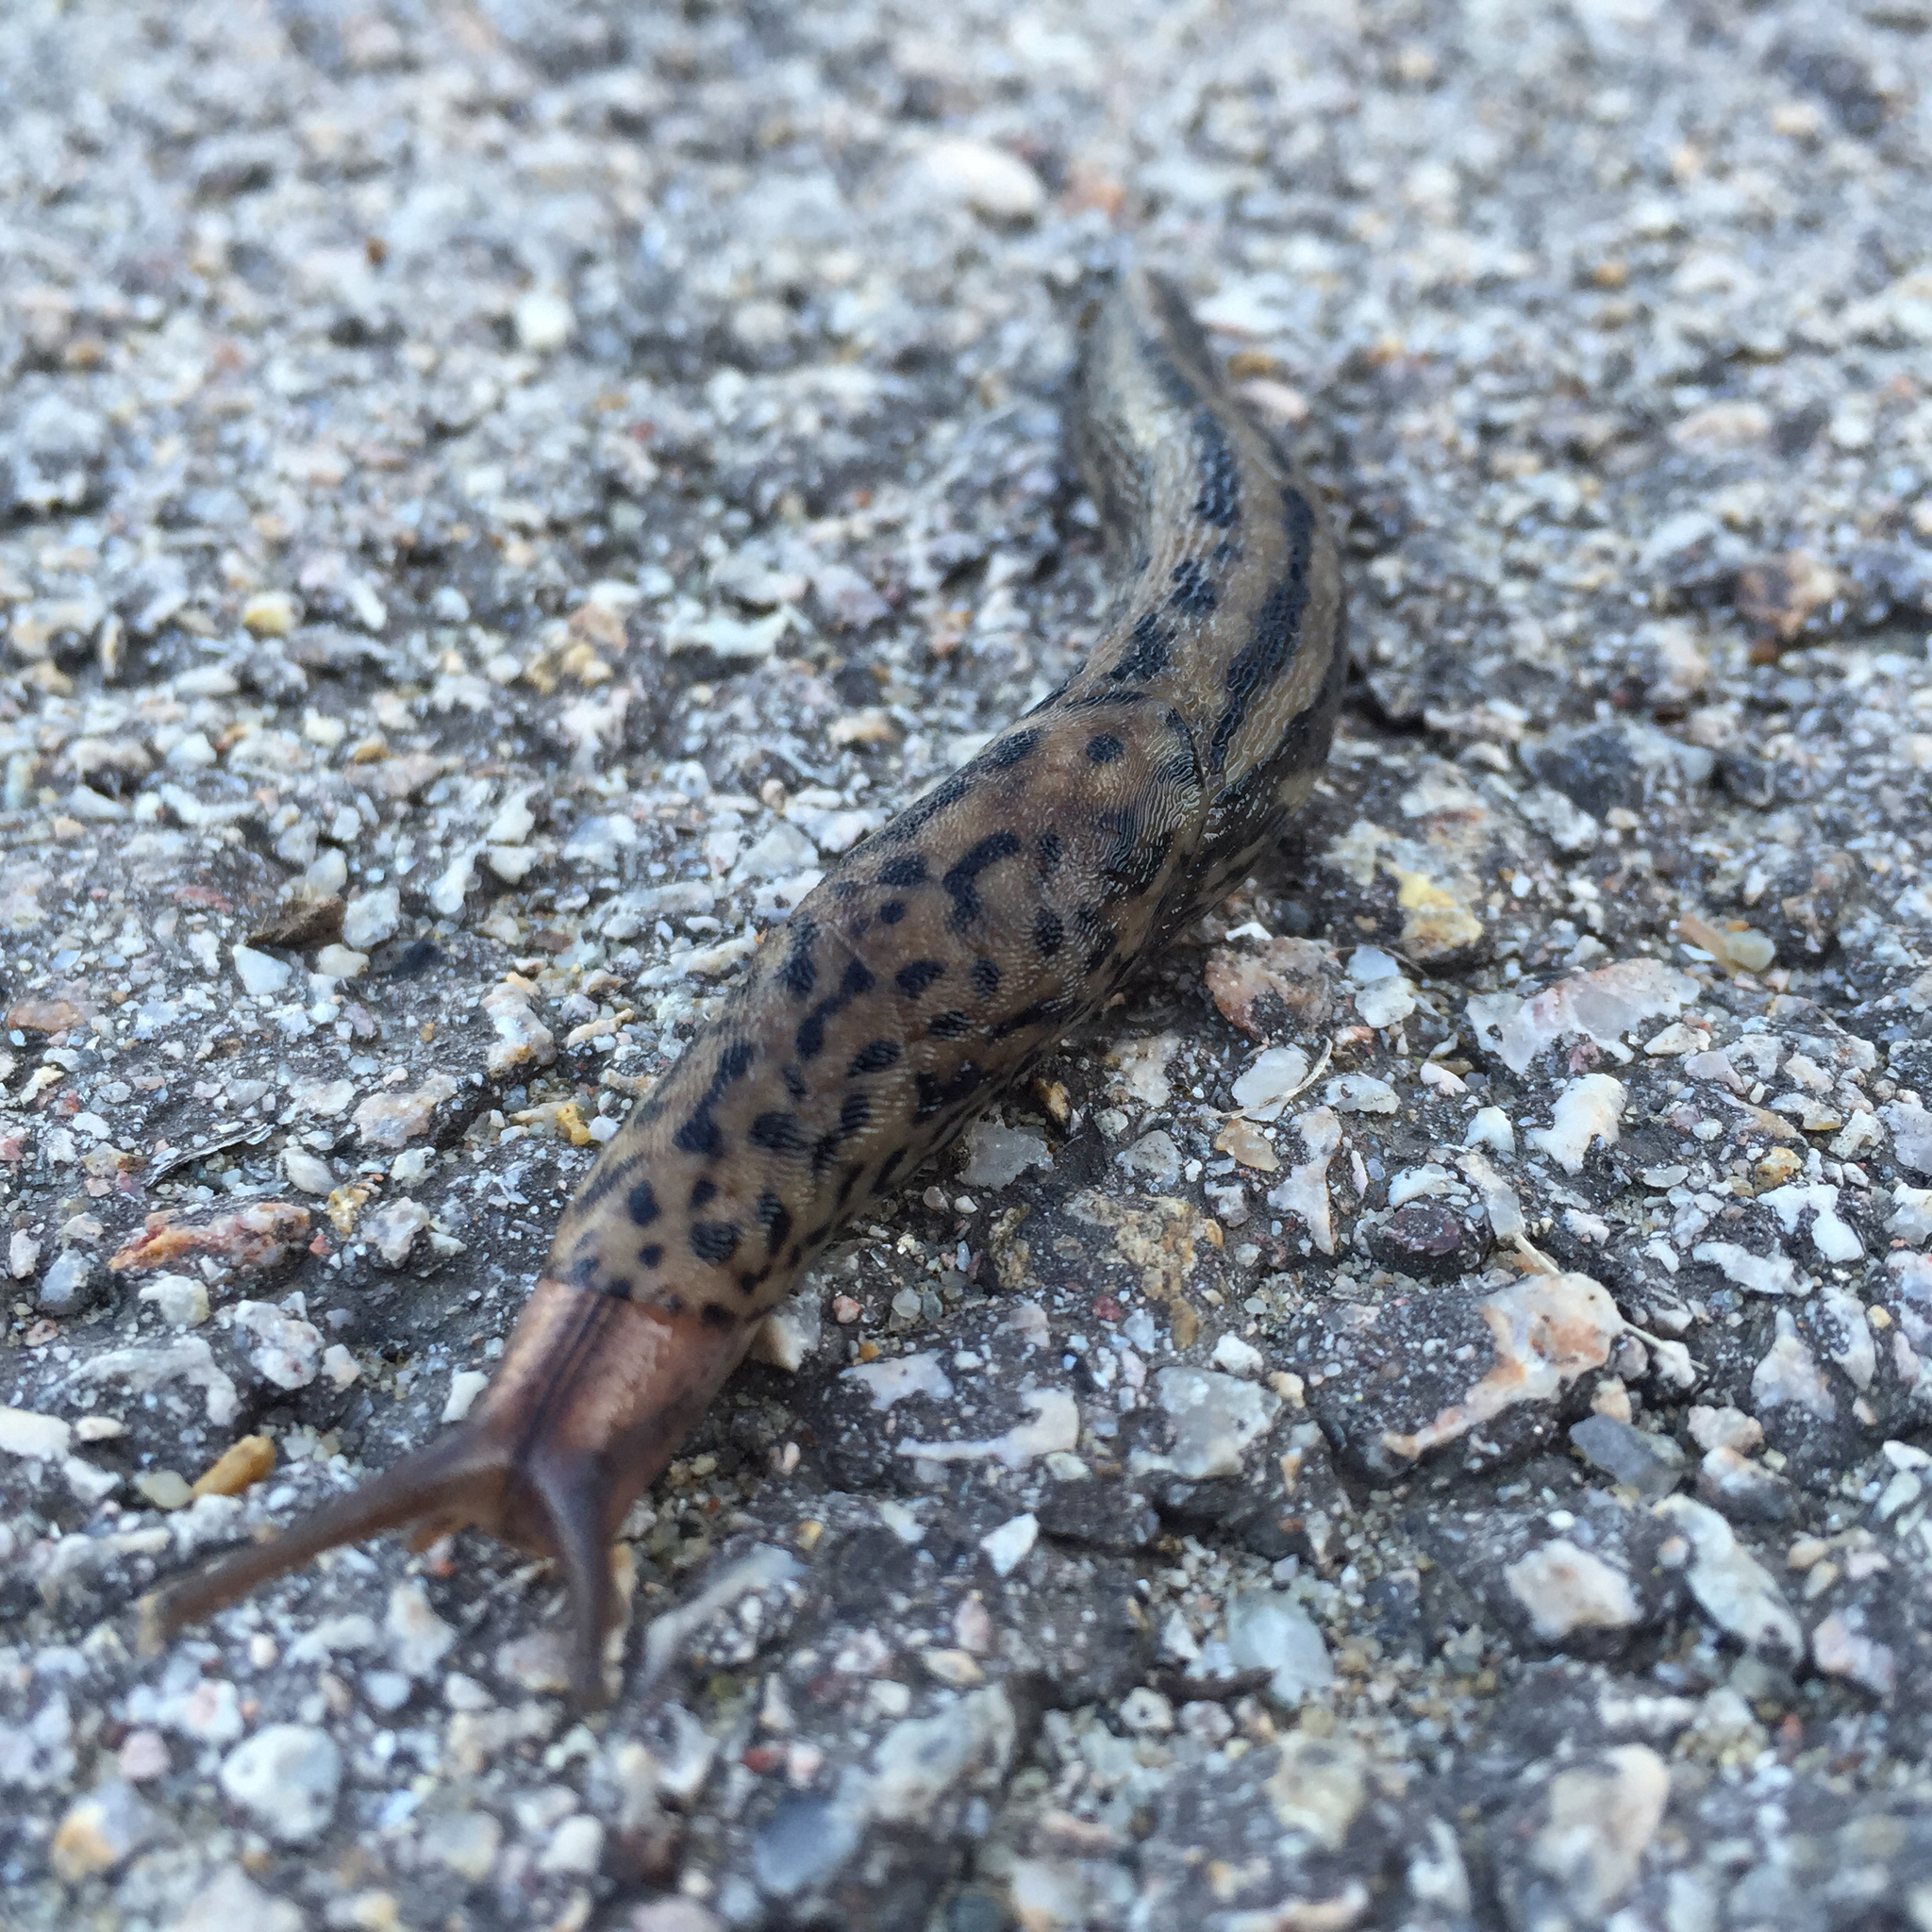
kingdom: Animalia
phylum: Mollusca
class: Gastropoda
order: Stylommatophora
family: Limacidae
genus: Limax
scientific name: Limax maximus
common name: Great grey slug
